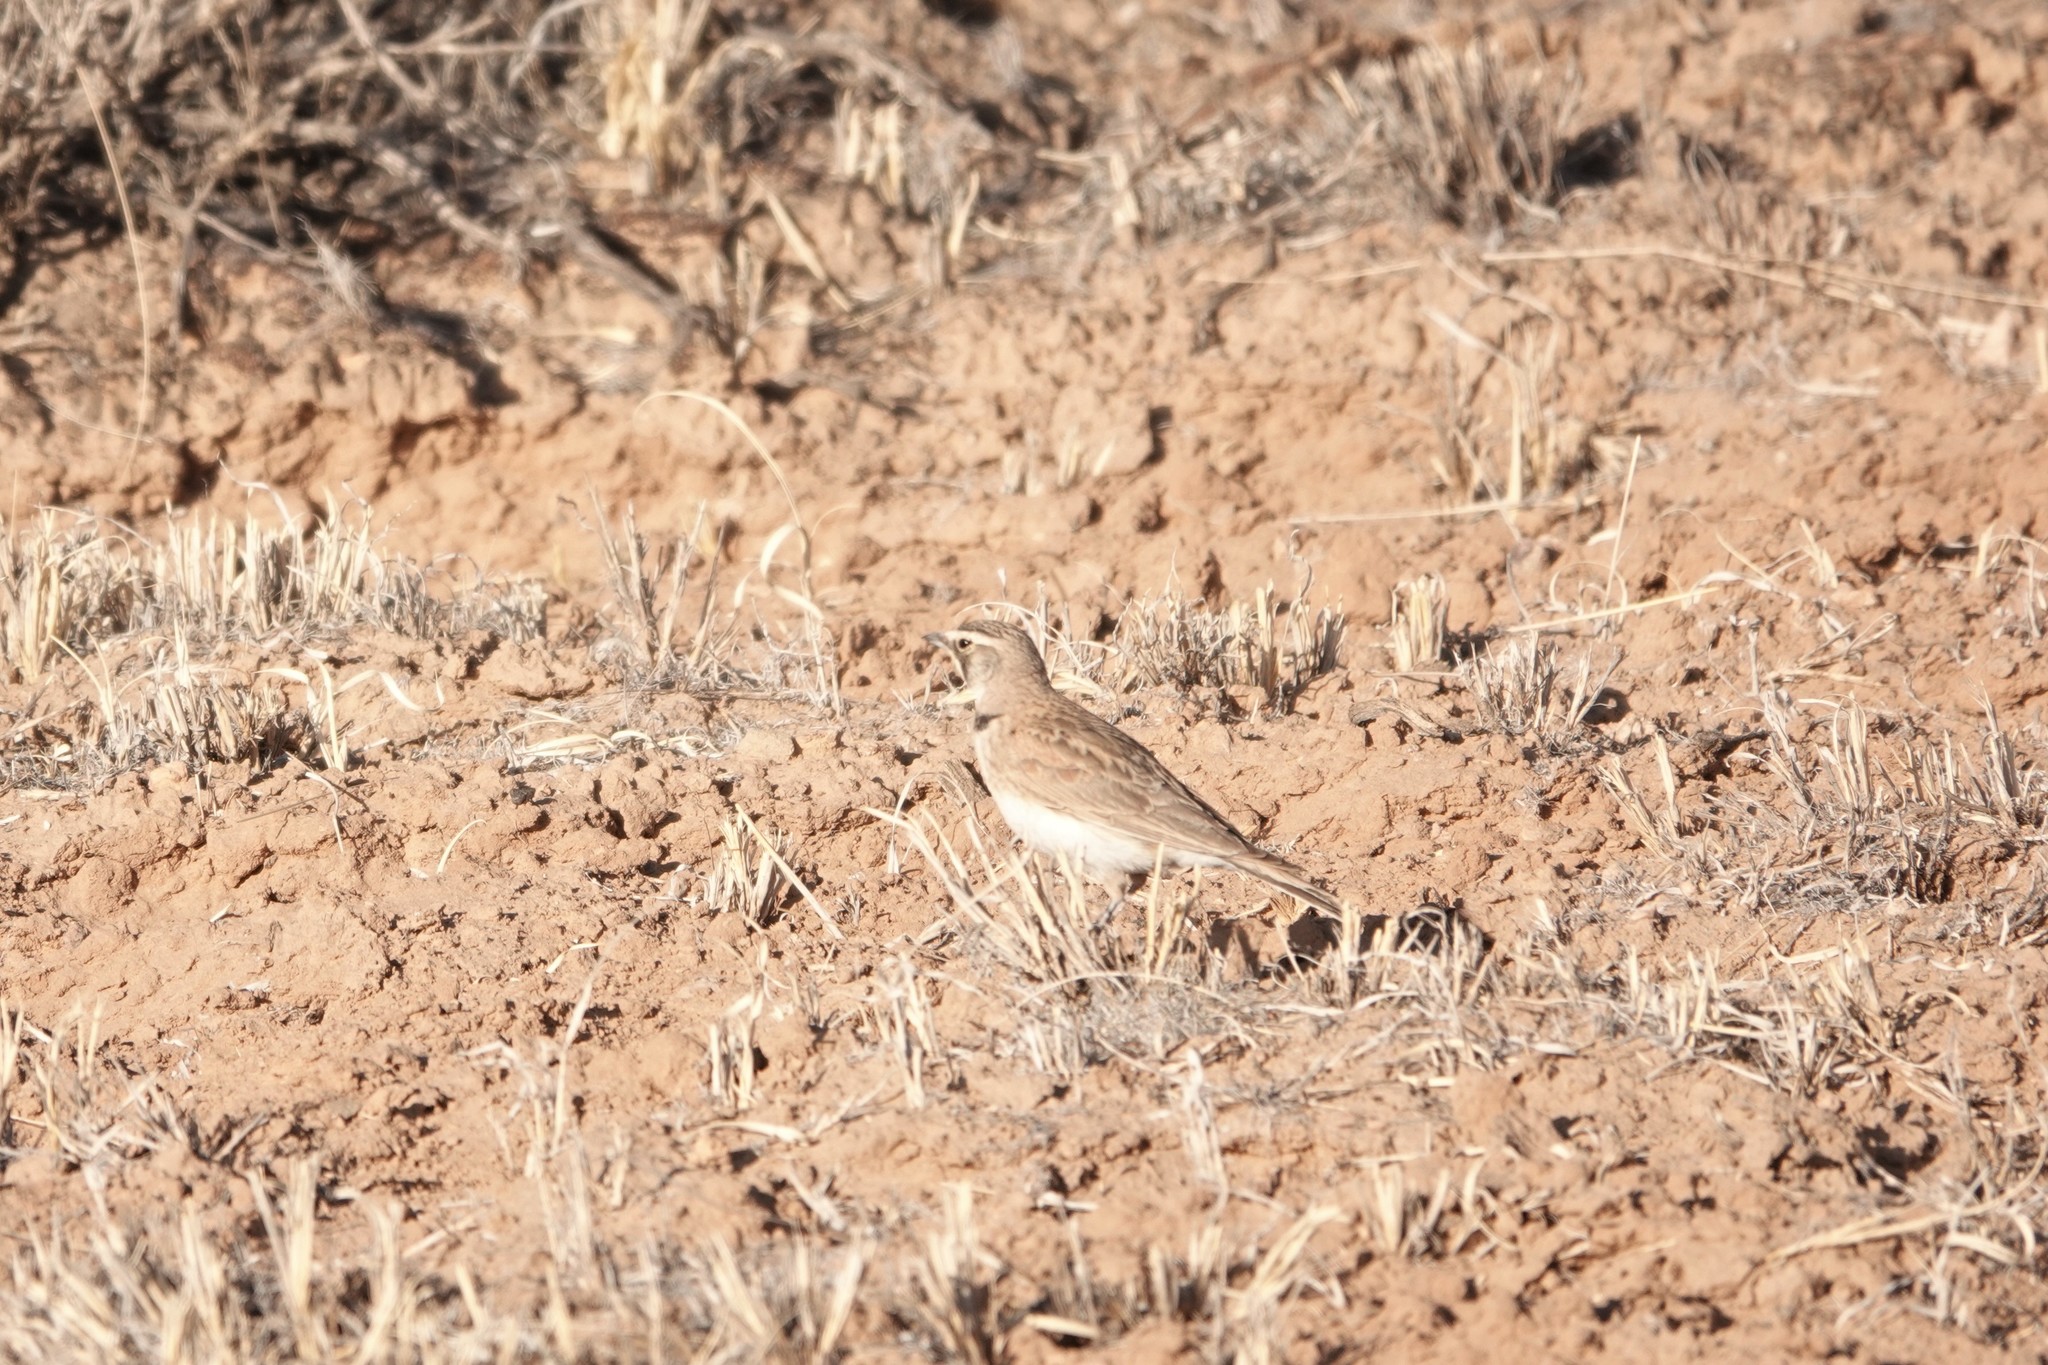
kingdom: Animalia
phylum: Chordata
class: Aves
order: Passeriformes
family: Alaudidae
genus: Eremophila
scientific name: Eremophila alpestris
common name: Horned lark
